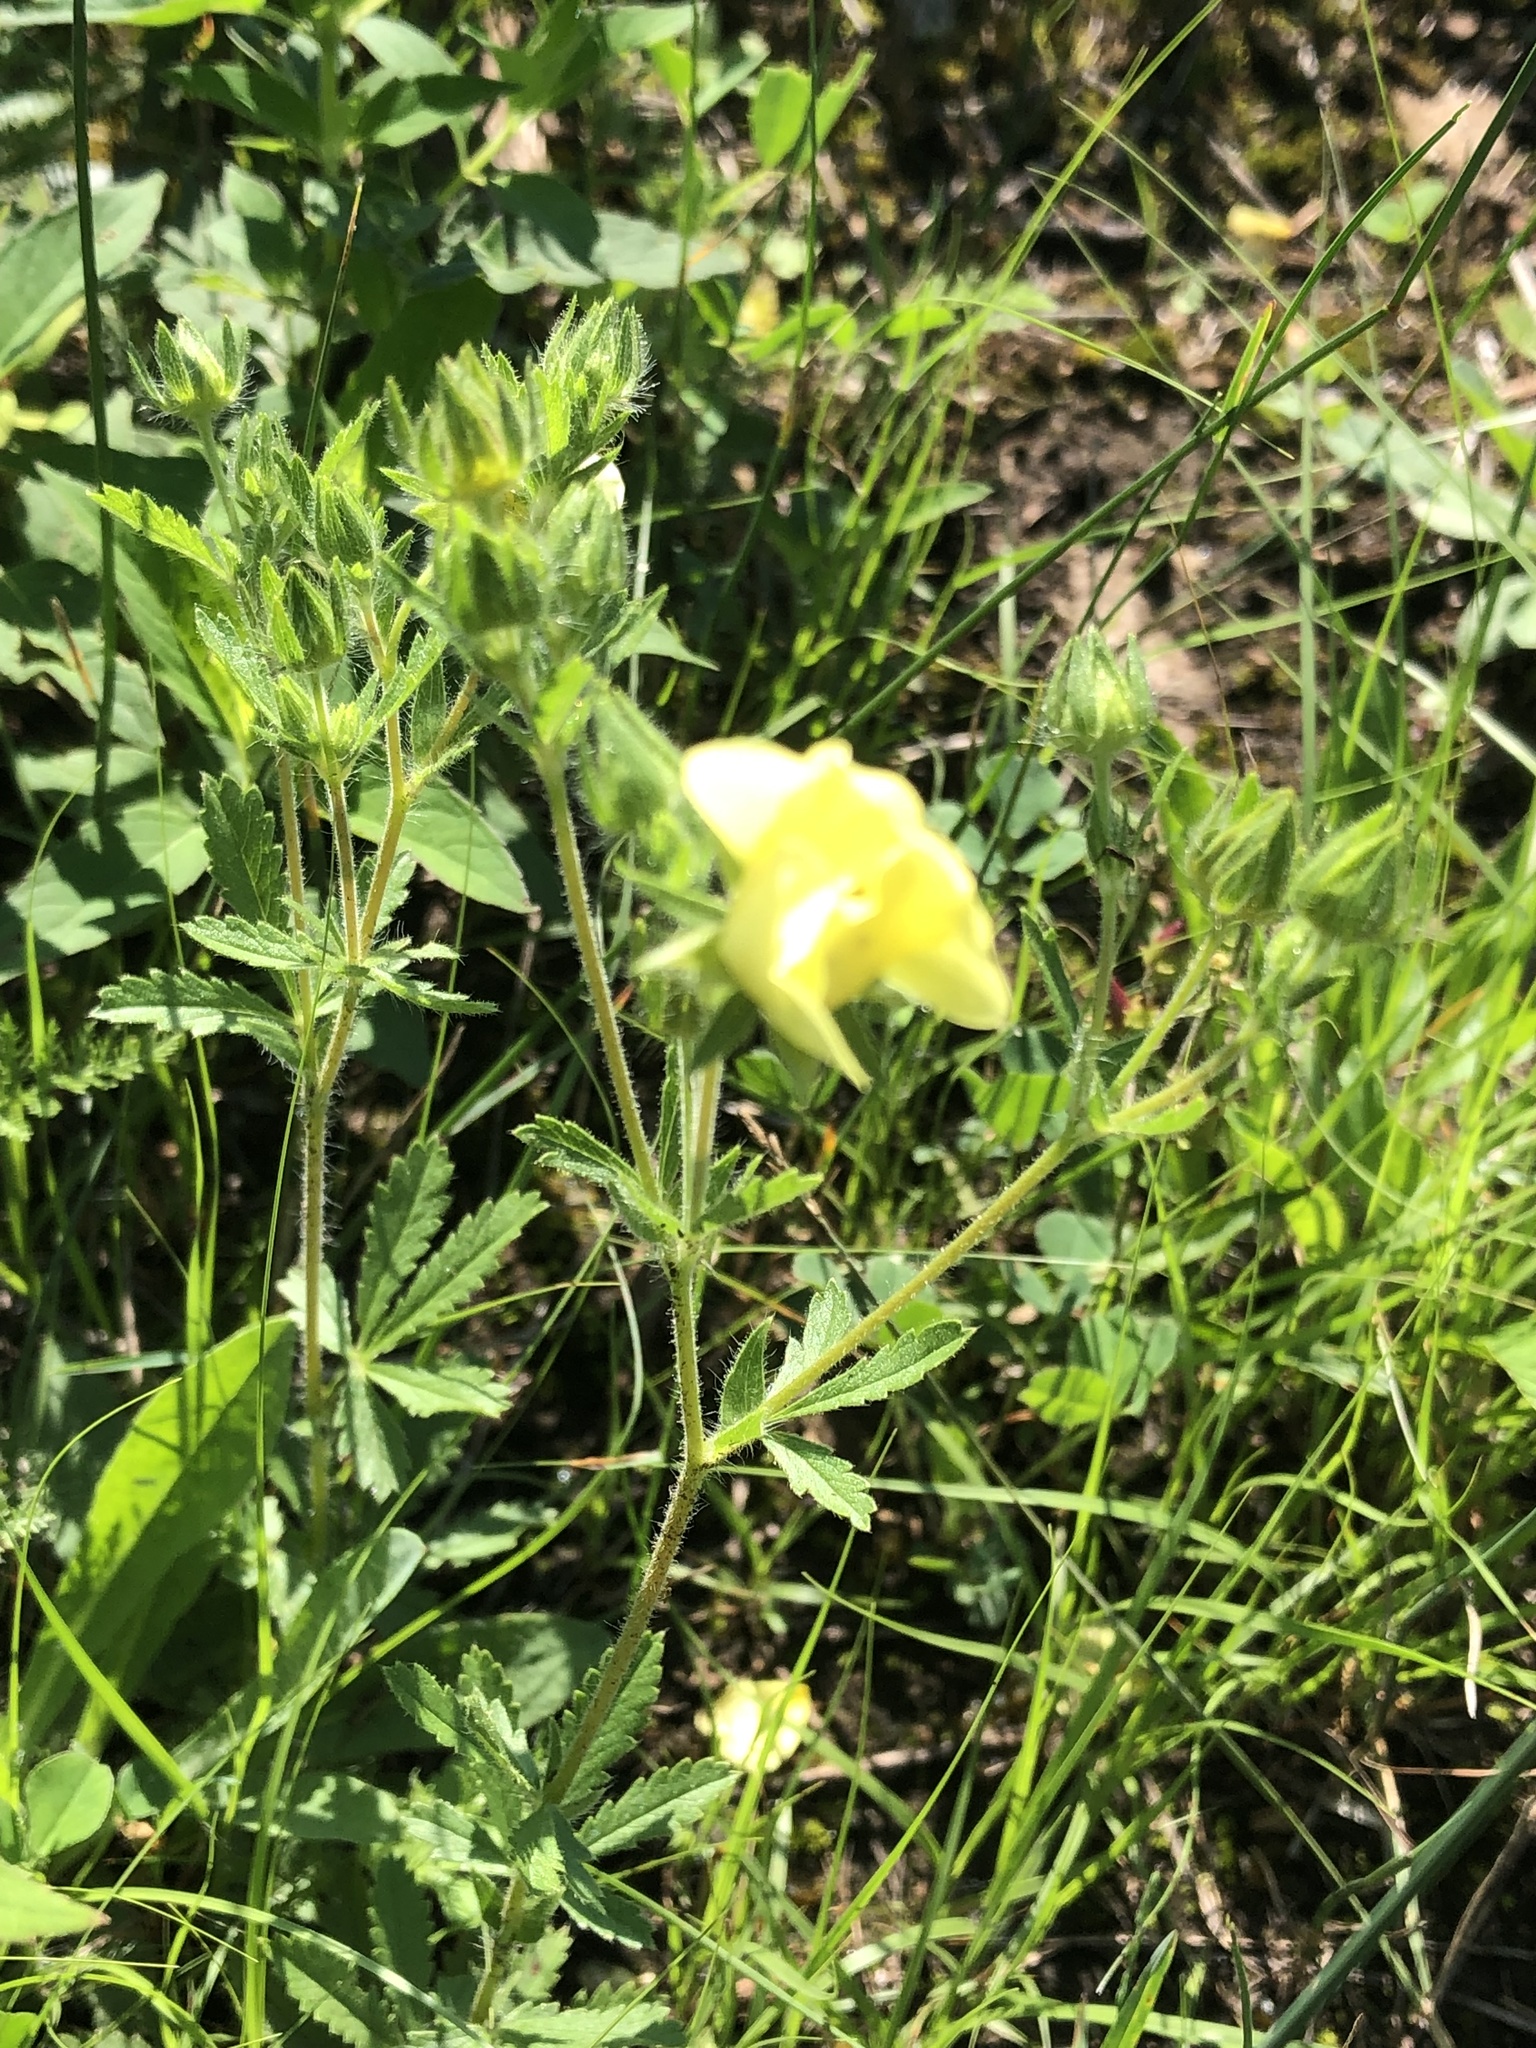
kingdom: Plantae
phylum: Tracheophyta
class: Magnoliopsida
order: Rosales
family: Rosaceae
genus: Potentilla
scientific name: Potentilla recta
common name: Sulphur cinquefoil
